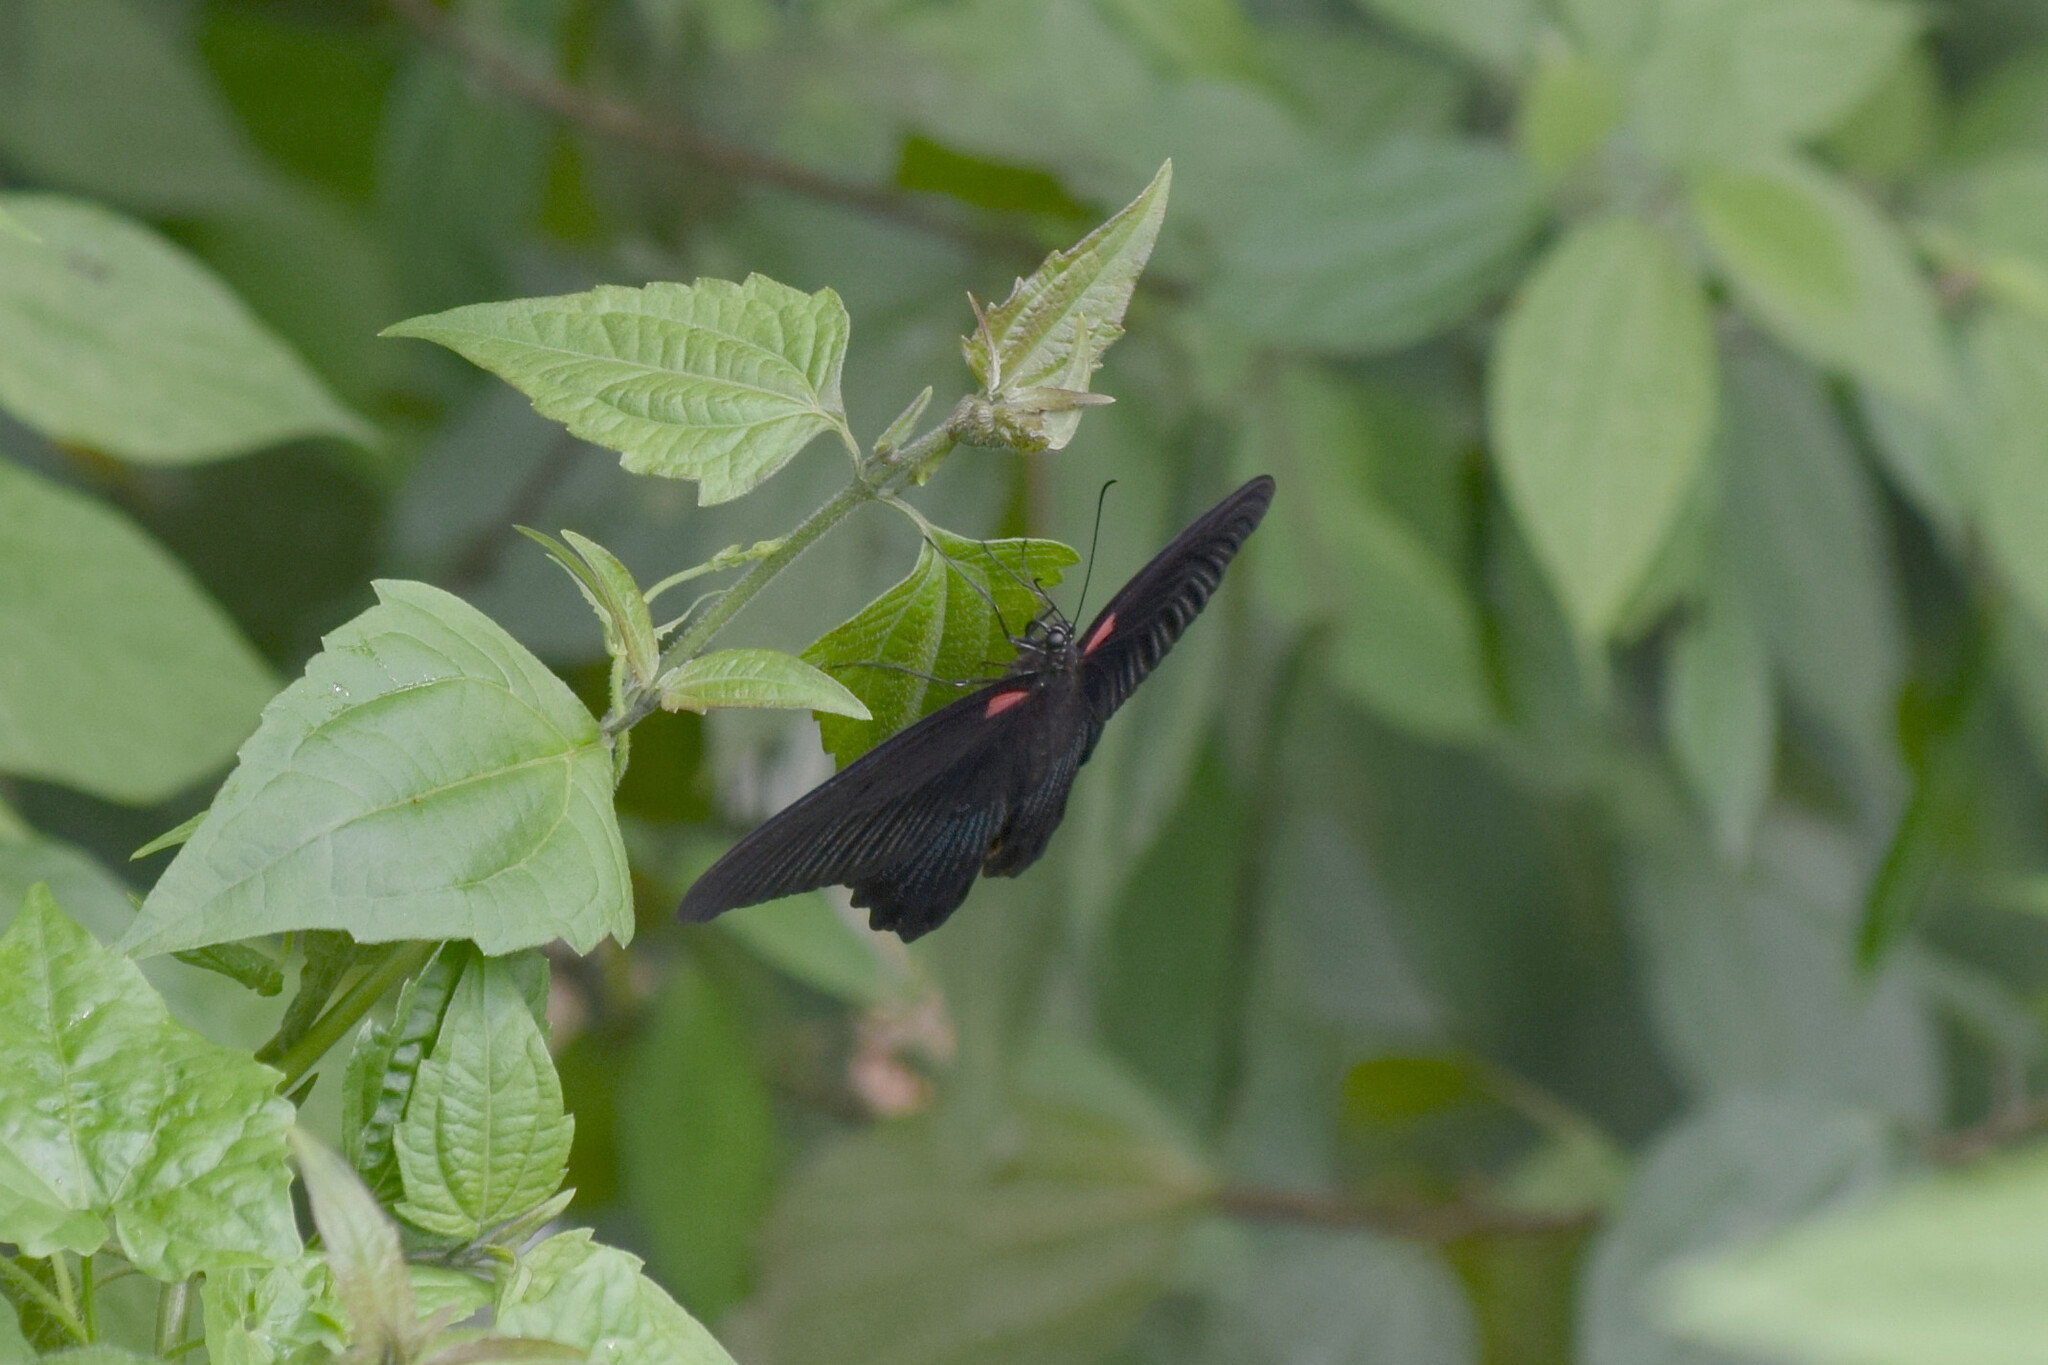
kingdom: Animalia
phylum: Arthropoda
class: Insecta
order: Lepidoptera
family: Papilionidae
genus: Papilio
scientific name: Papilio memnon
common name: Great mormon
